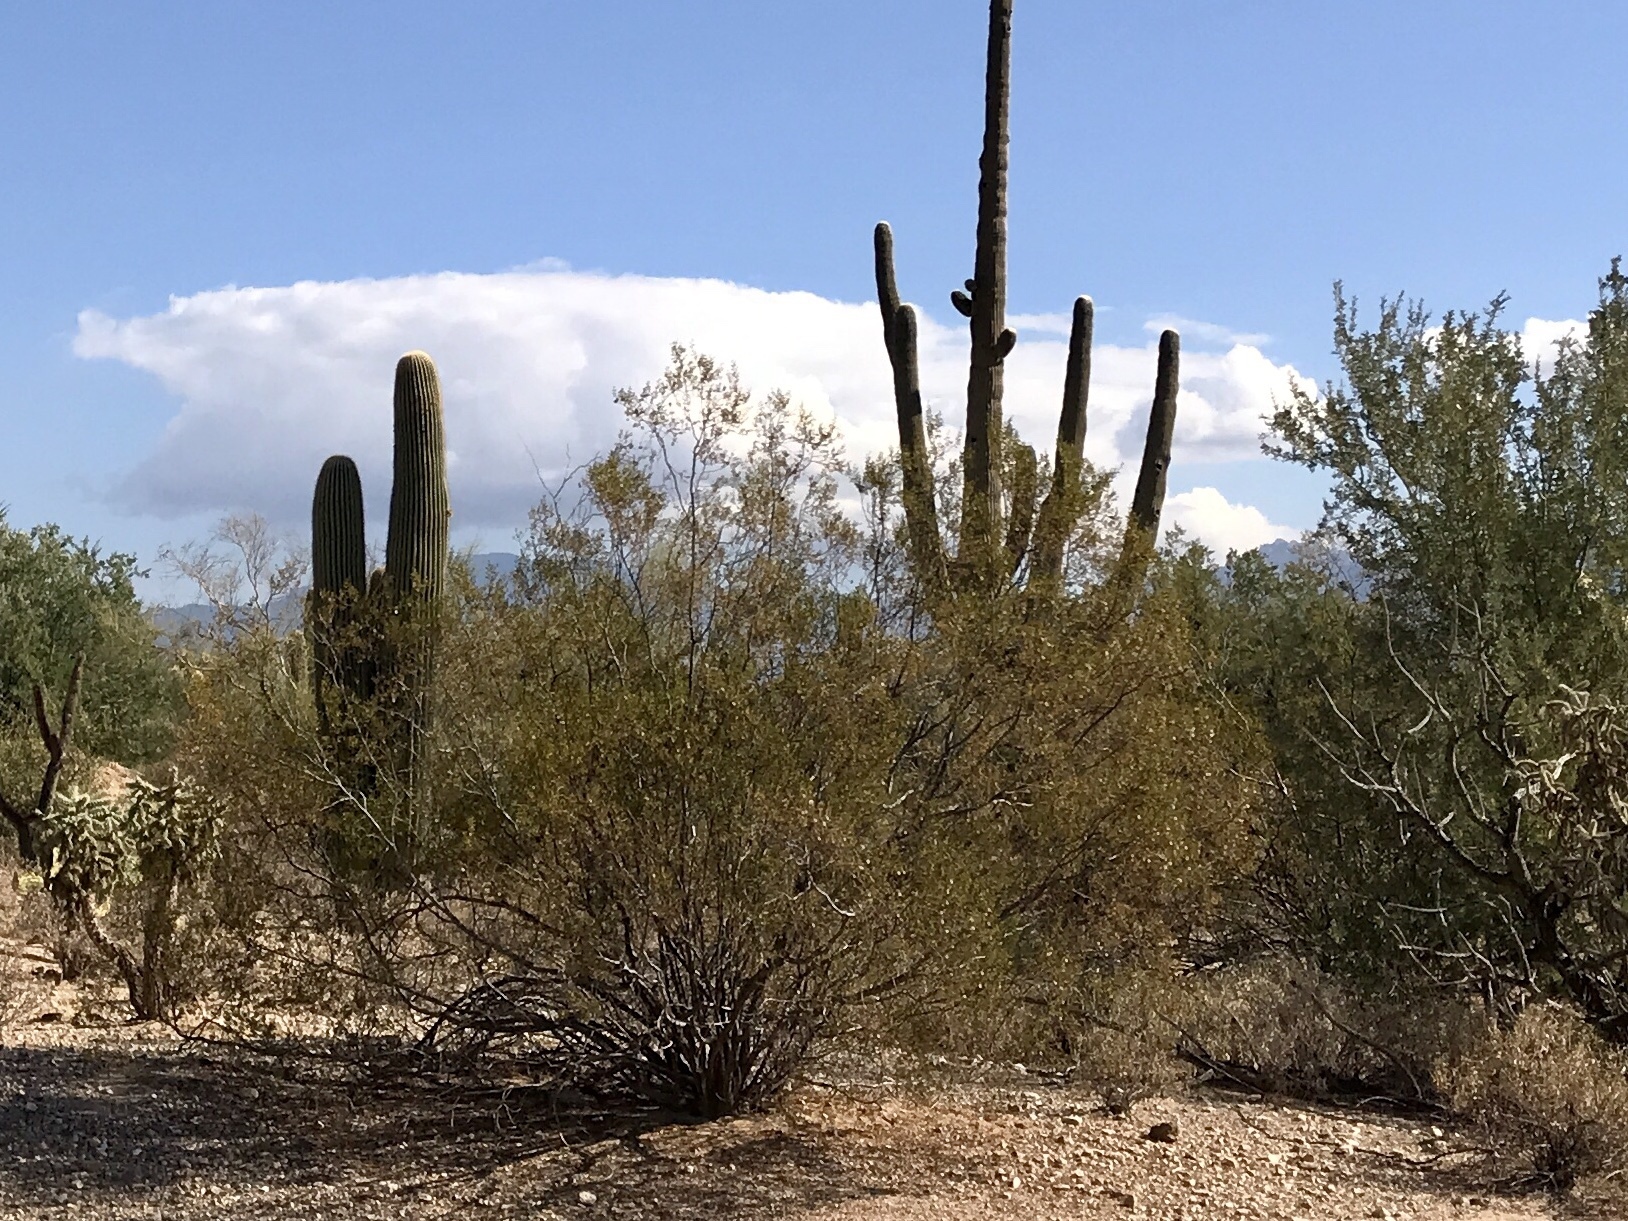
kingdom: Plantae
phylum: Tracheophyta
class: Magnoliopsida
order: Zygophyllales
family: Zygophyllaceae
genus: Larrea
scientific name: Larrea tridentata
